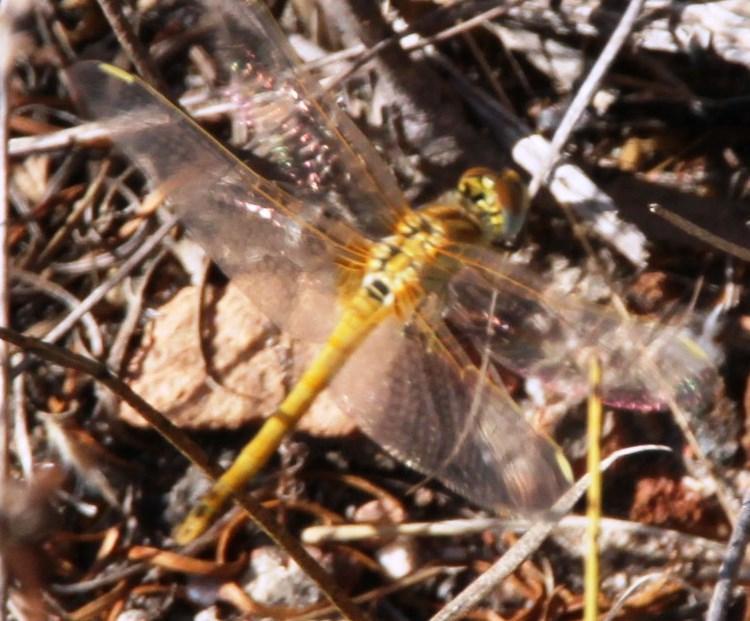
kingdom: Animalia
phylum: Arthropoda
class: Insecta
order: Odonata
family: Libellulidae
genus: Sympetrum
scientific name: Sympetrum fonscolombii
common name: Red-veined darter
